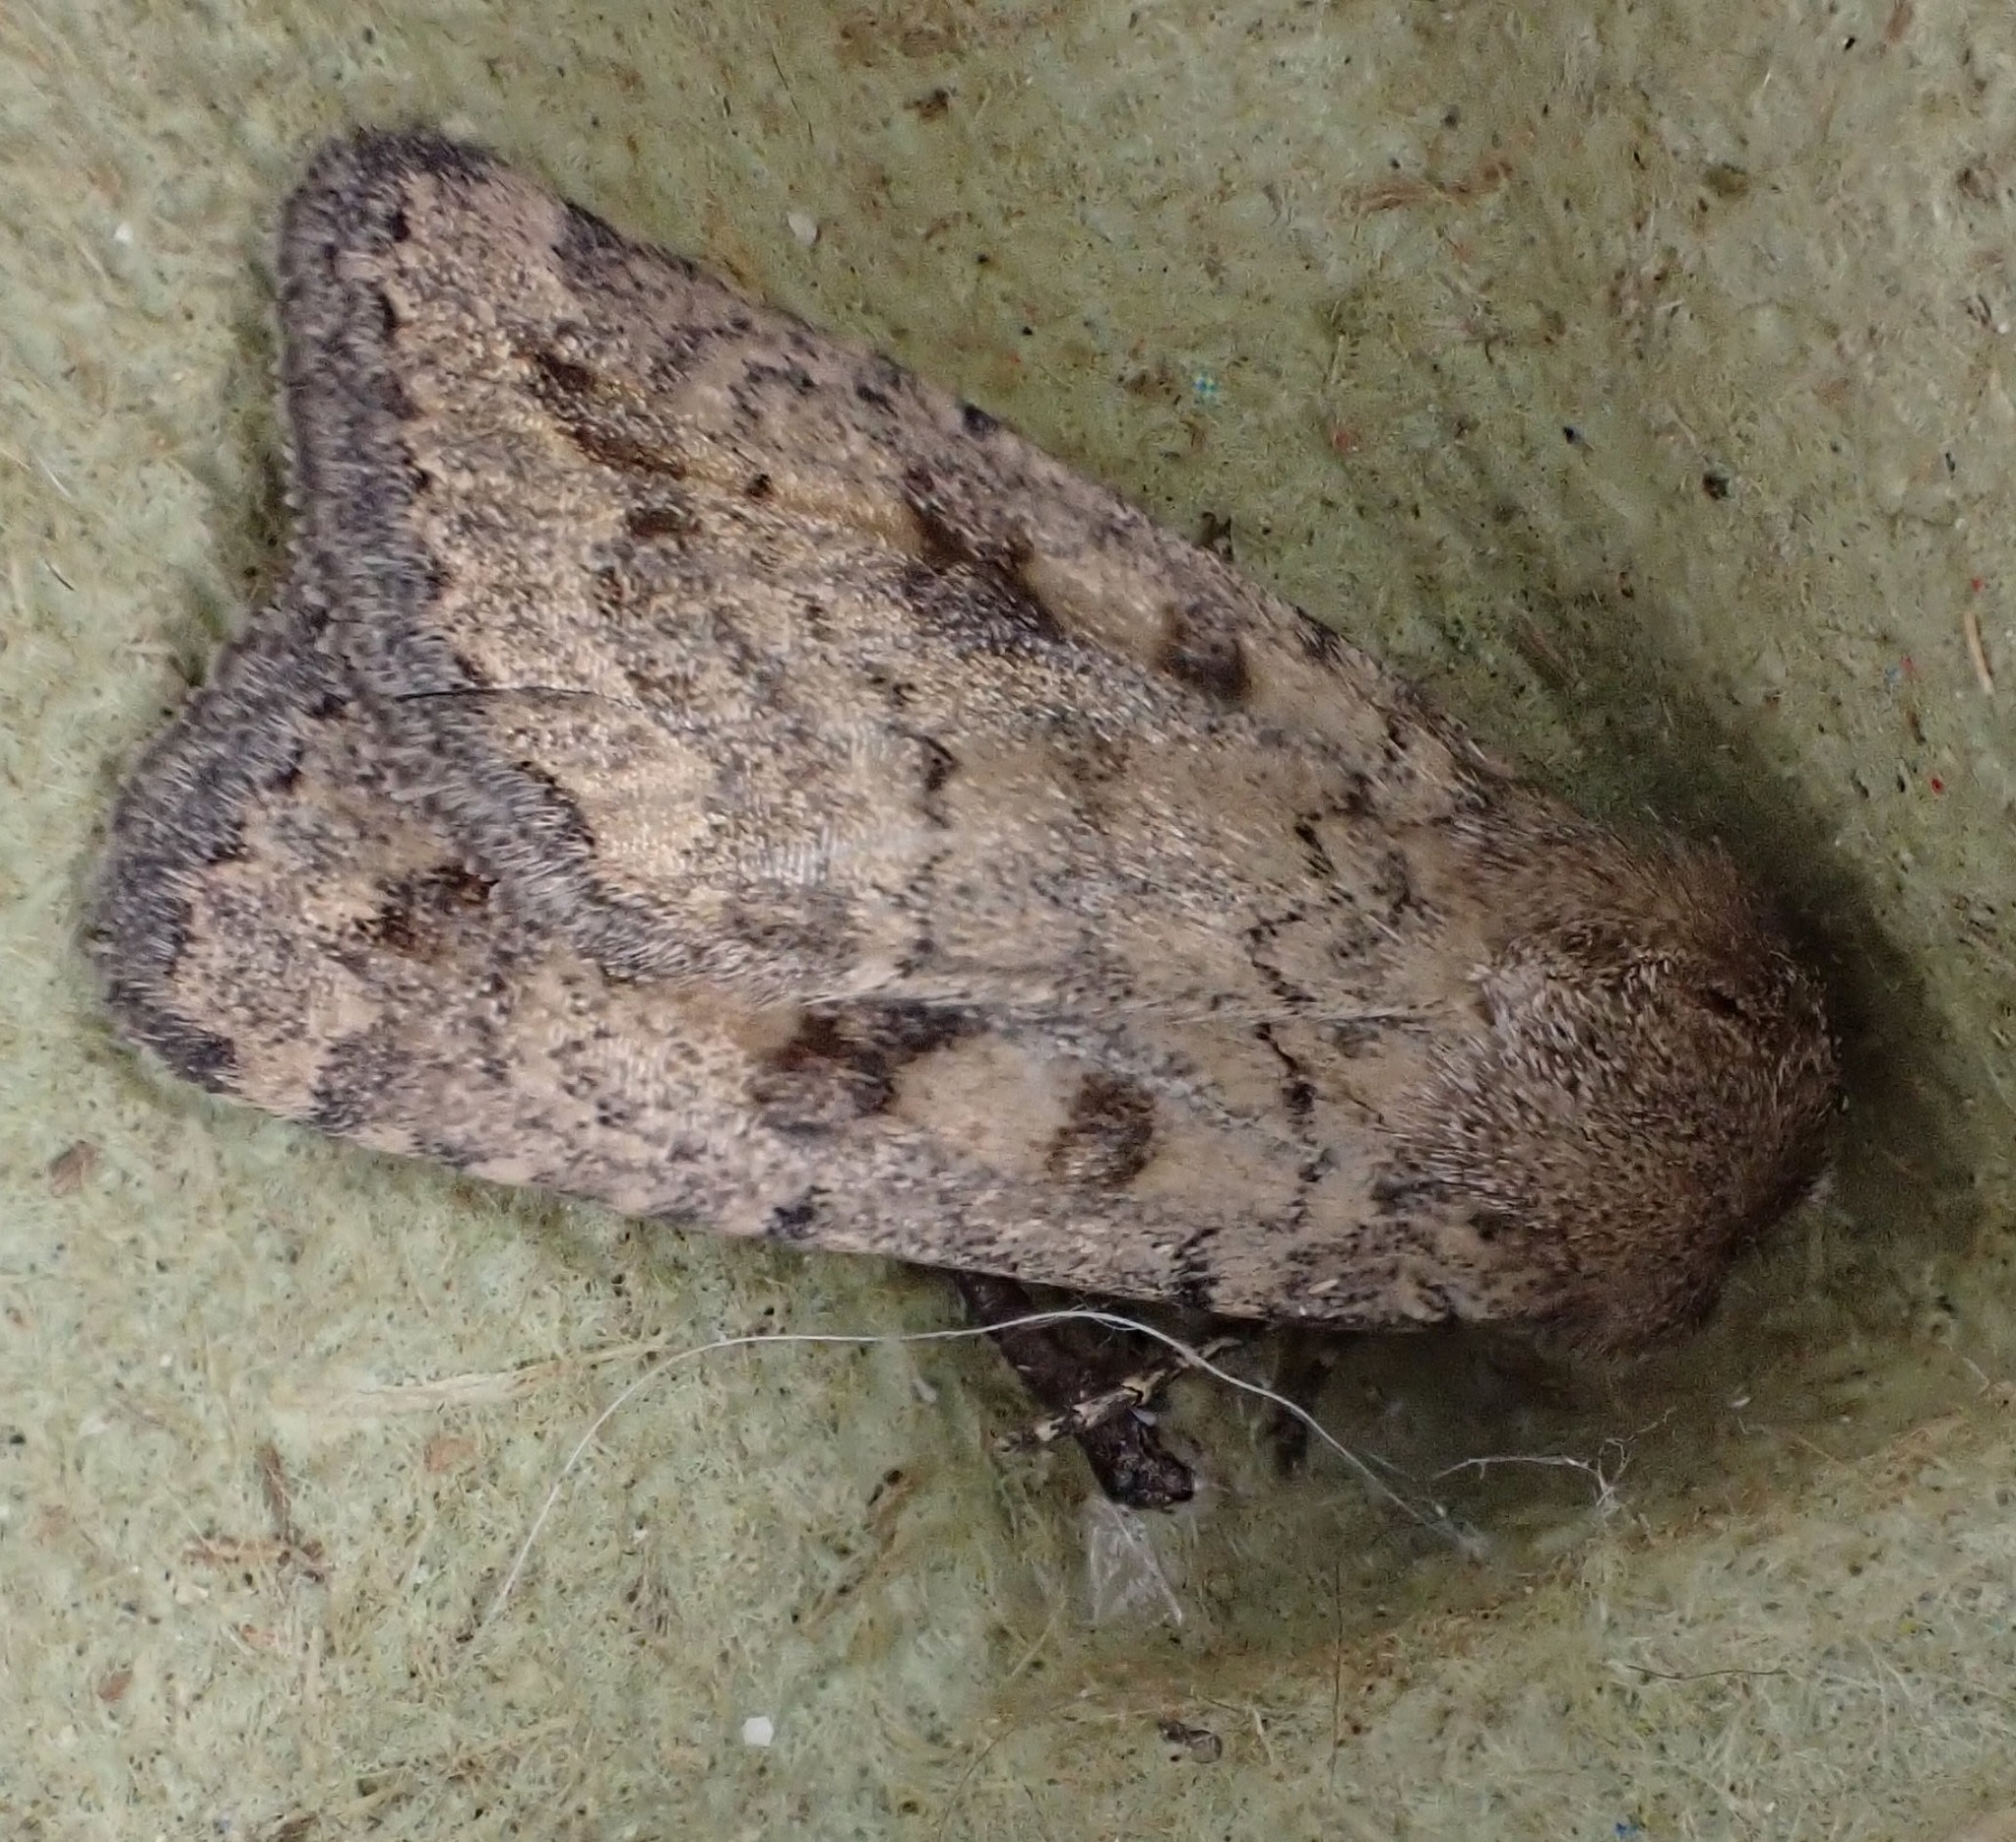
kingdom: Animalia
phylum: Arthropoda
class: Insecta
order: Lepidoptera
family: Noctuidae
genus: Caradrina
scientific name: Caradrina morpheus
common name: Mottled rustic
